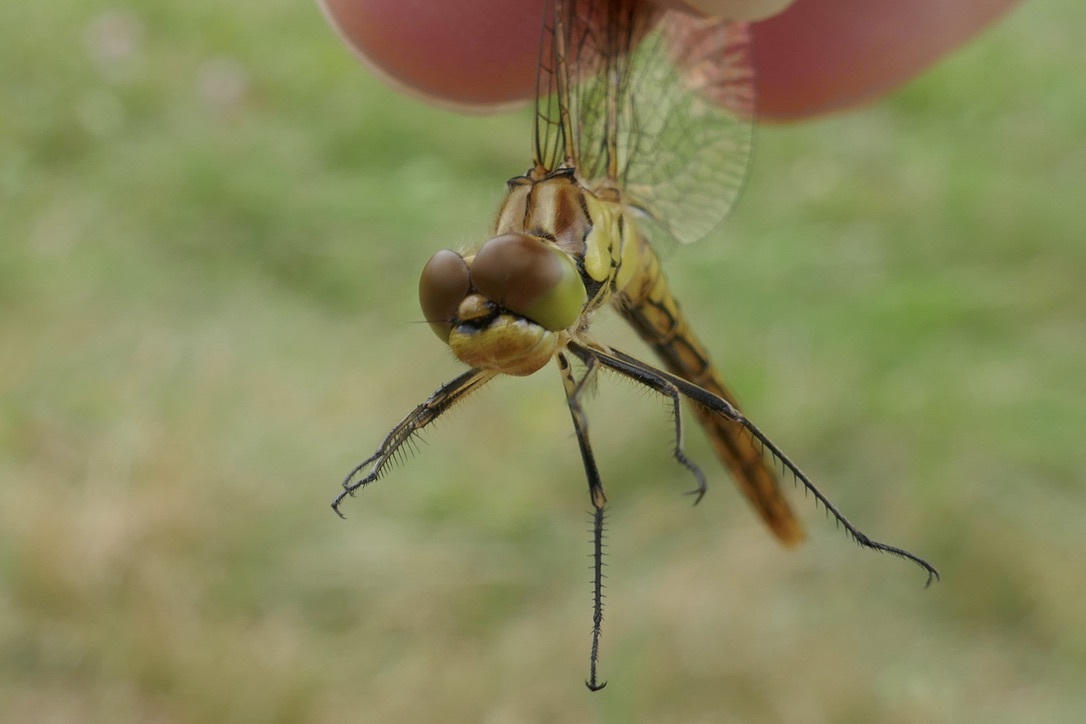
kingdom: Animalia
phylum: Arthropoda
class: Insecta
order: Odonata
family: Libellulidae
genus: Sympetrum
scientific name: Sympetrum vulgatum
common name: Vagrant darter
